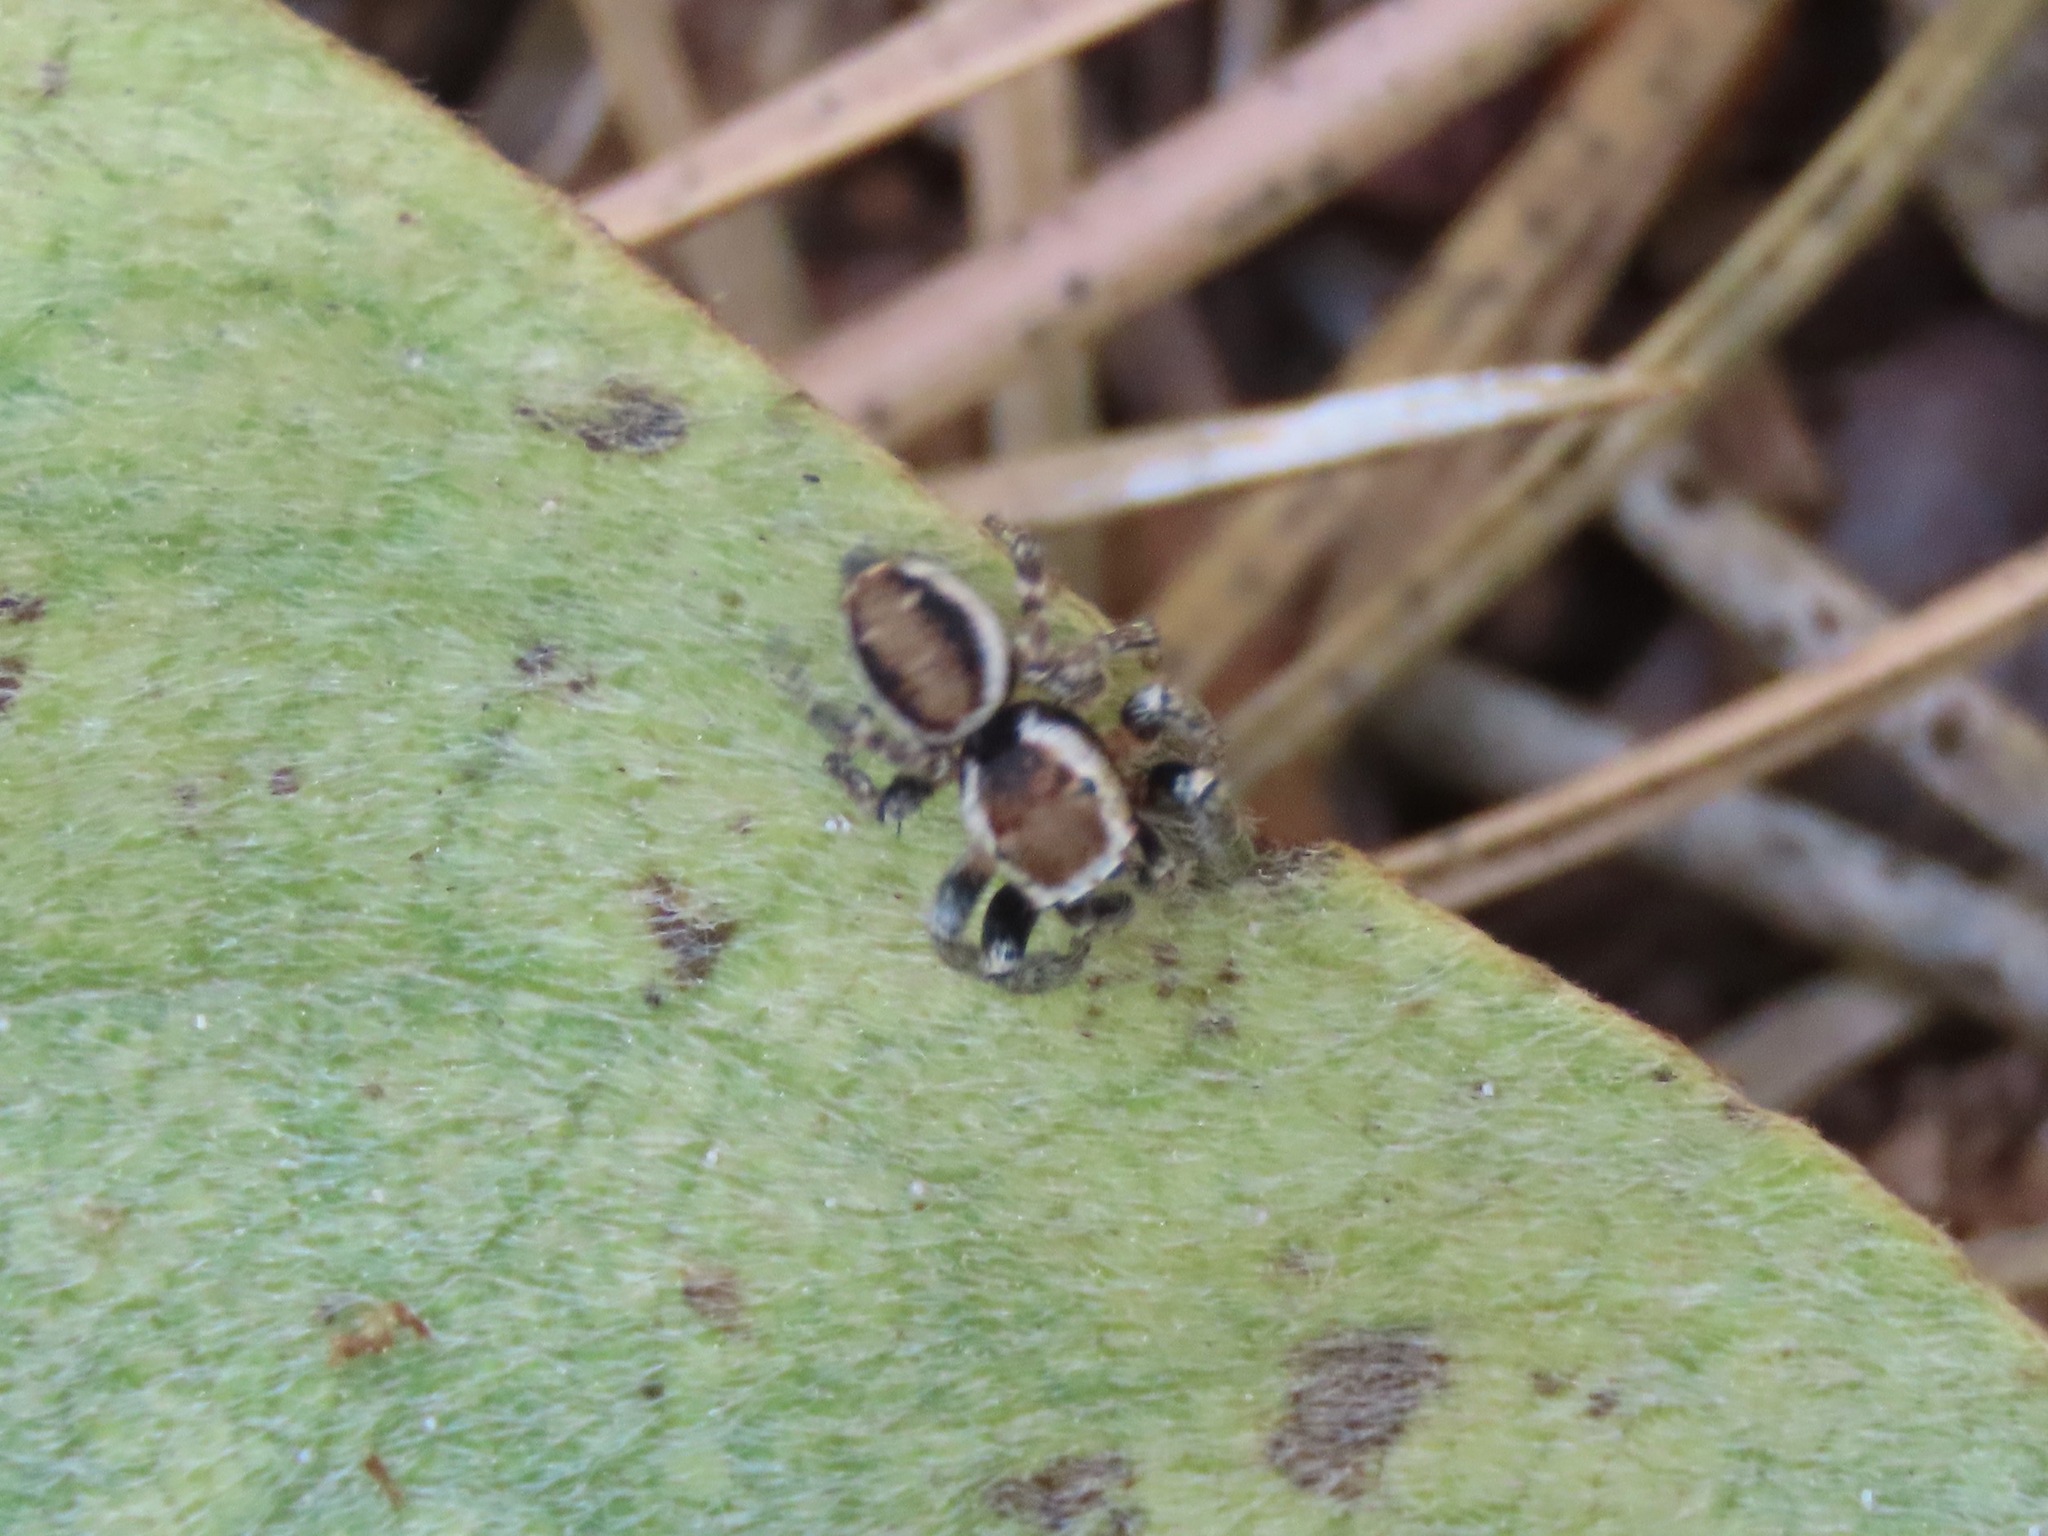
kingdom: Animalia
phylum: Arthropoda
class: Arachnida
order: Araneae
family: Salticidae
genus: Evarcha
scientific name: Evarcha proszynskii
